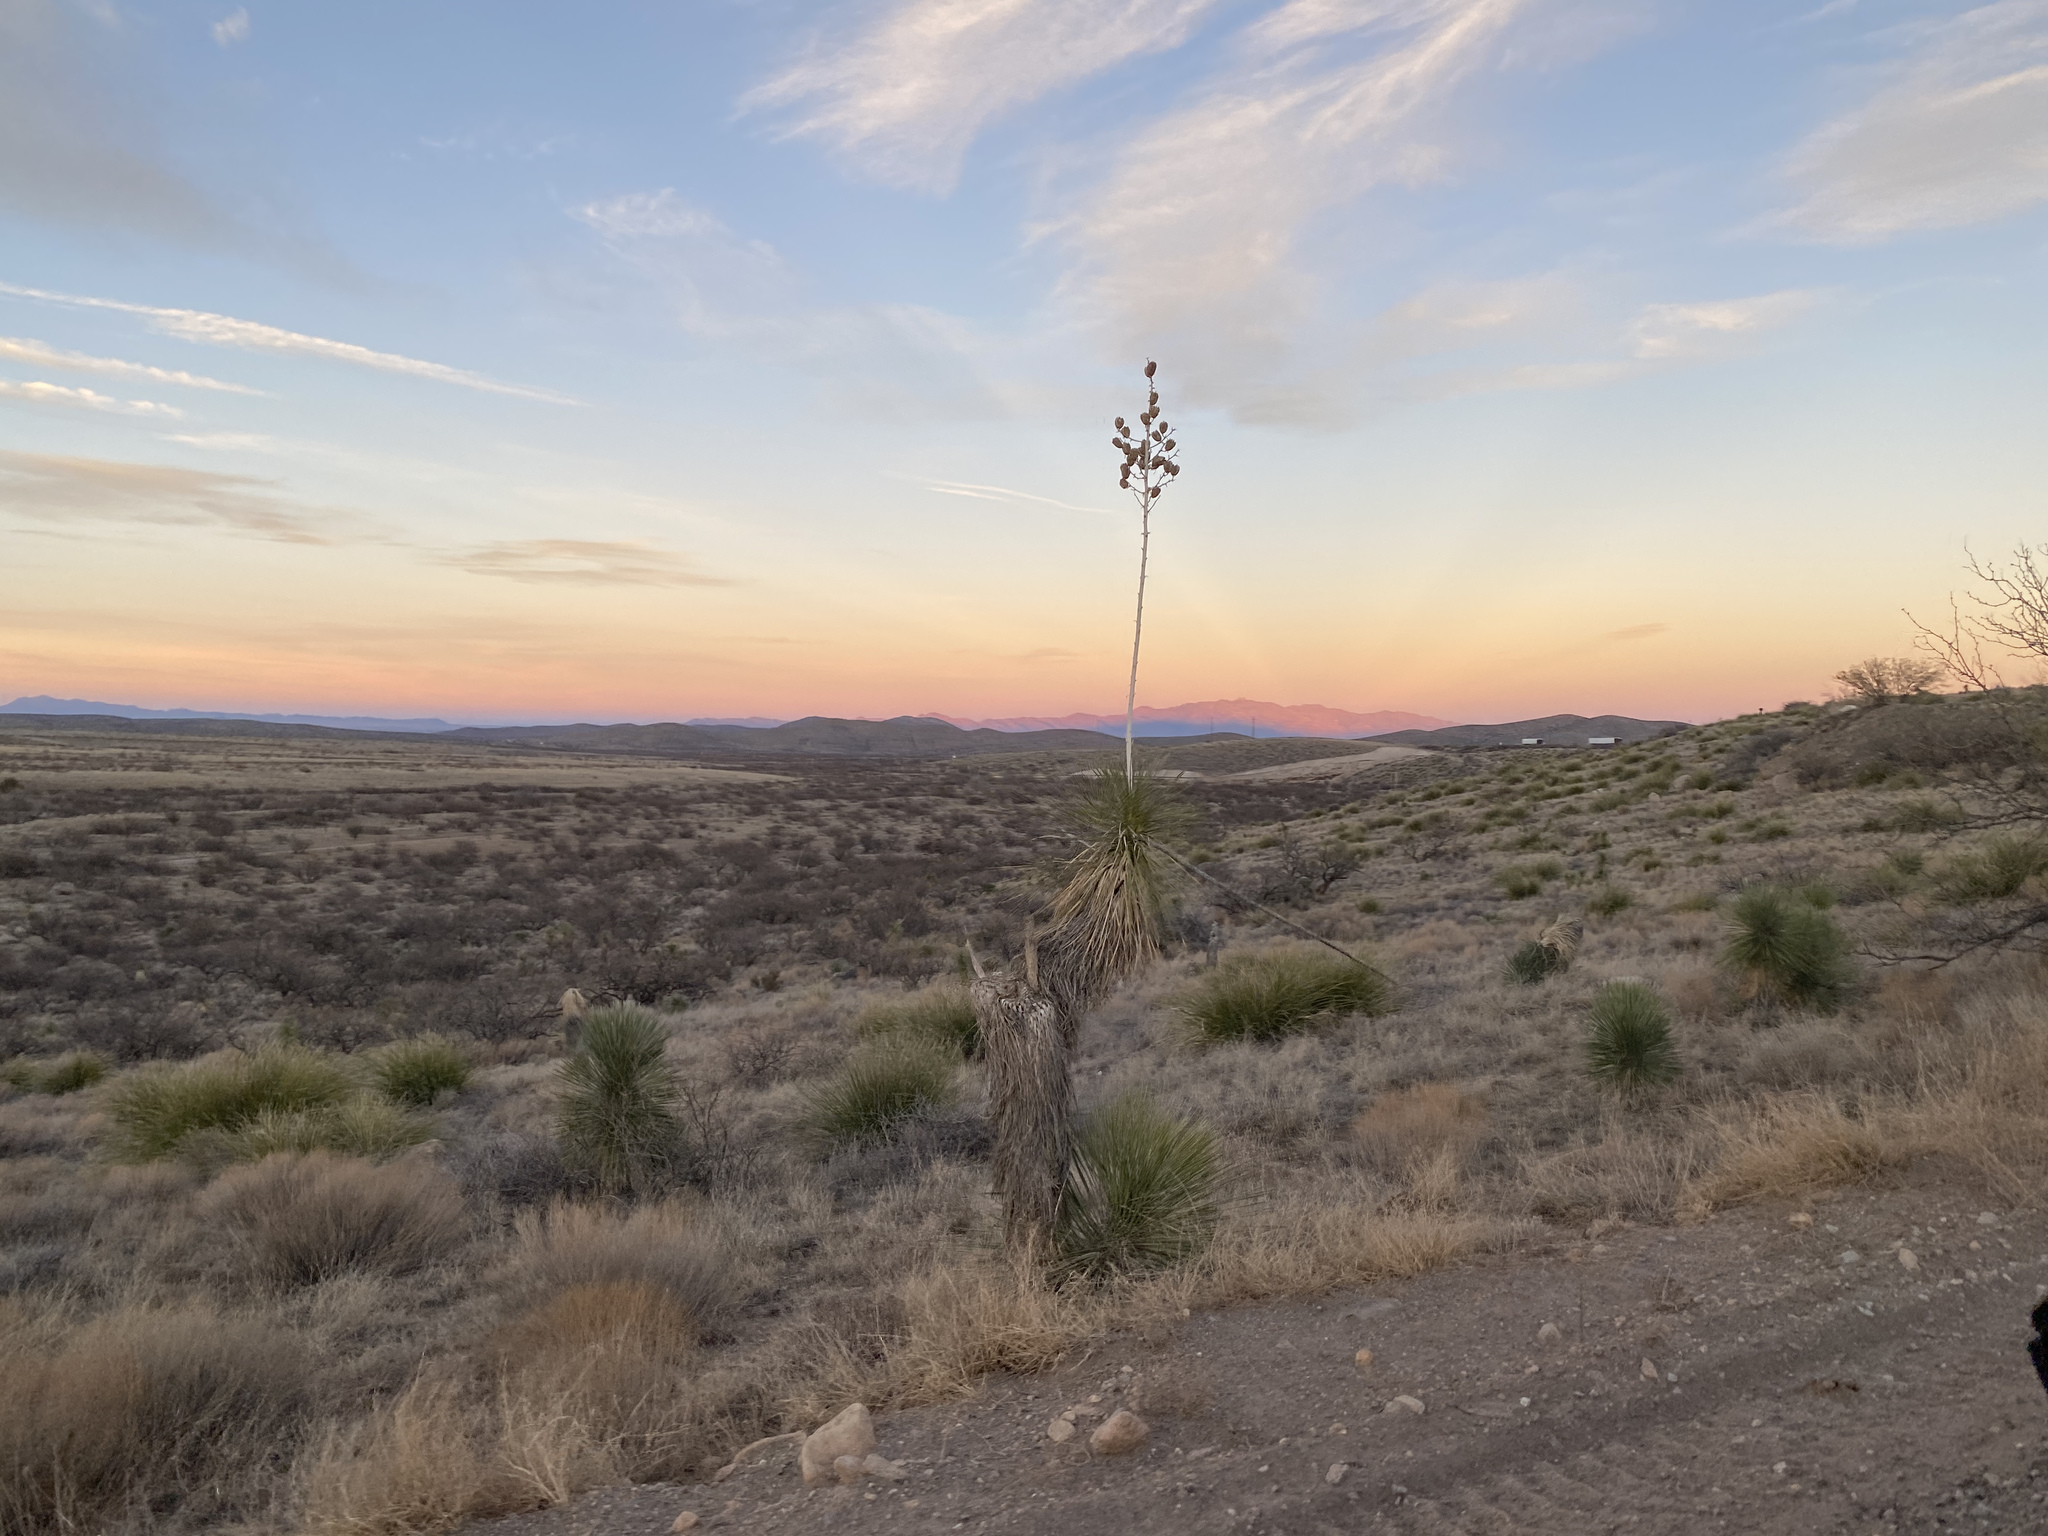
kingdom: Plantae
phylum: Tracheophyta
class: Liliopsida
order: Asparagales
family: Asparagaceae
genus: Yucca
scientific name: Yucca elata
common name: Palmella
